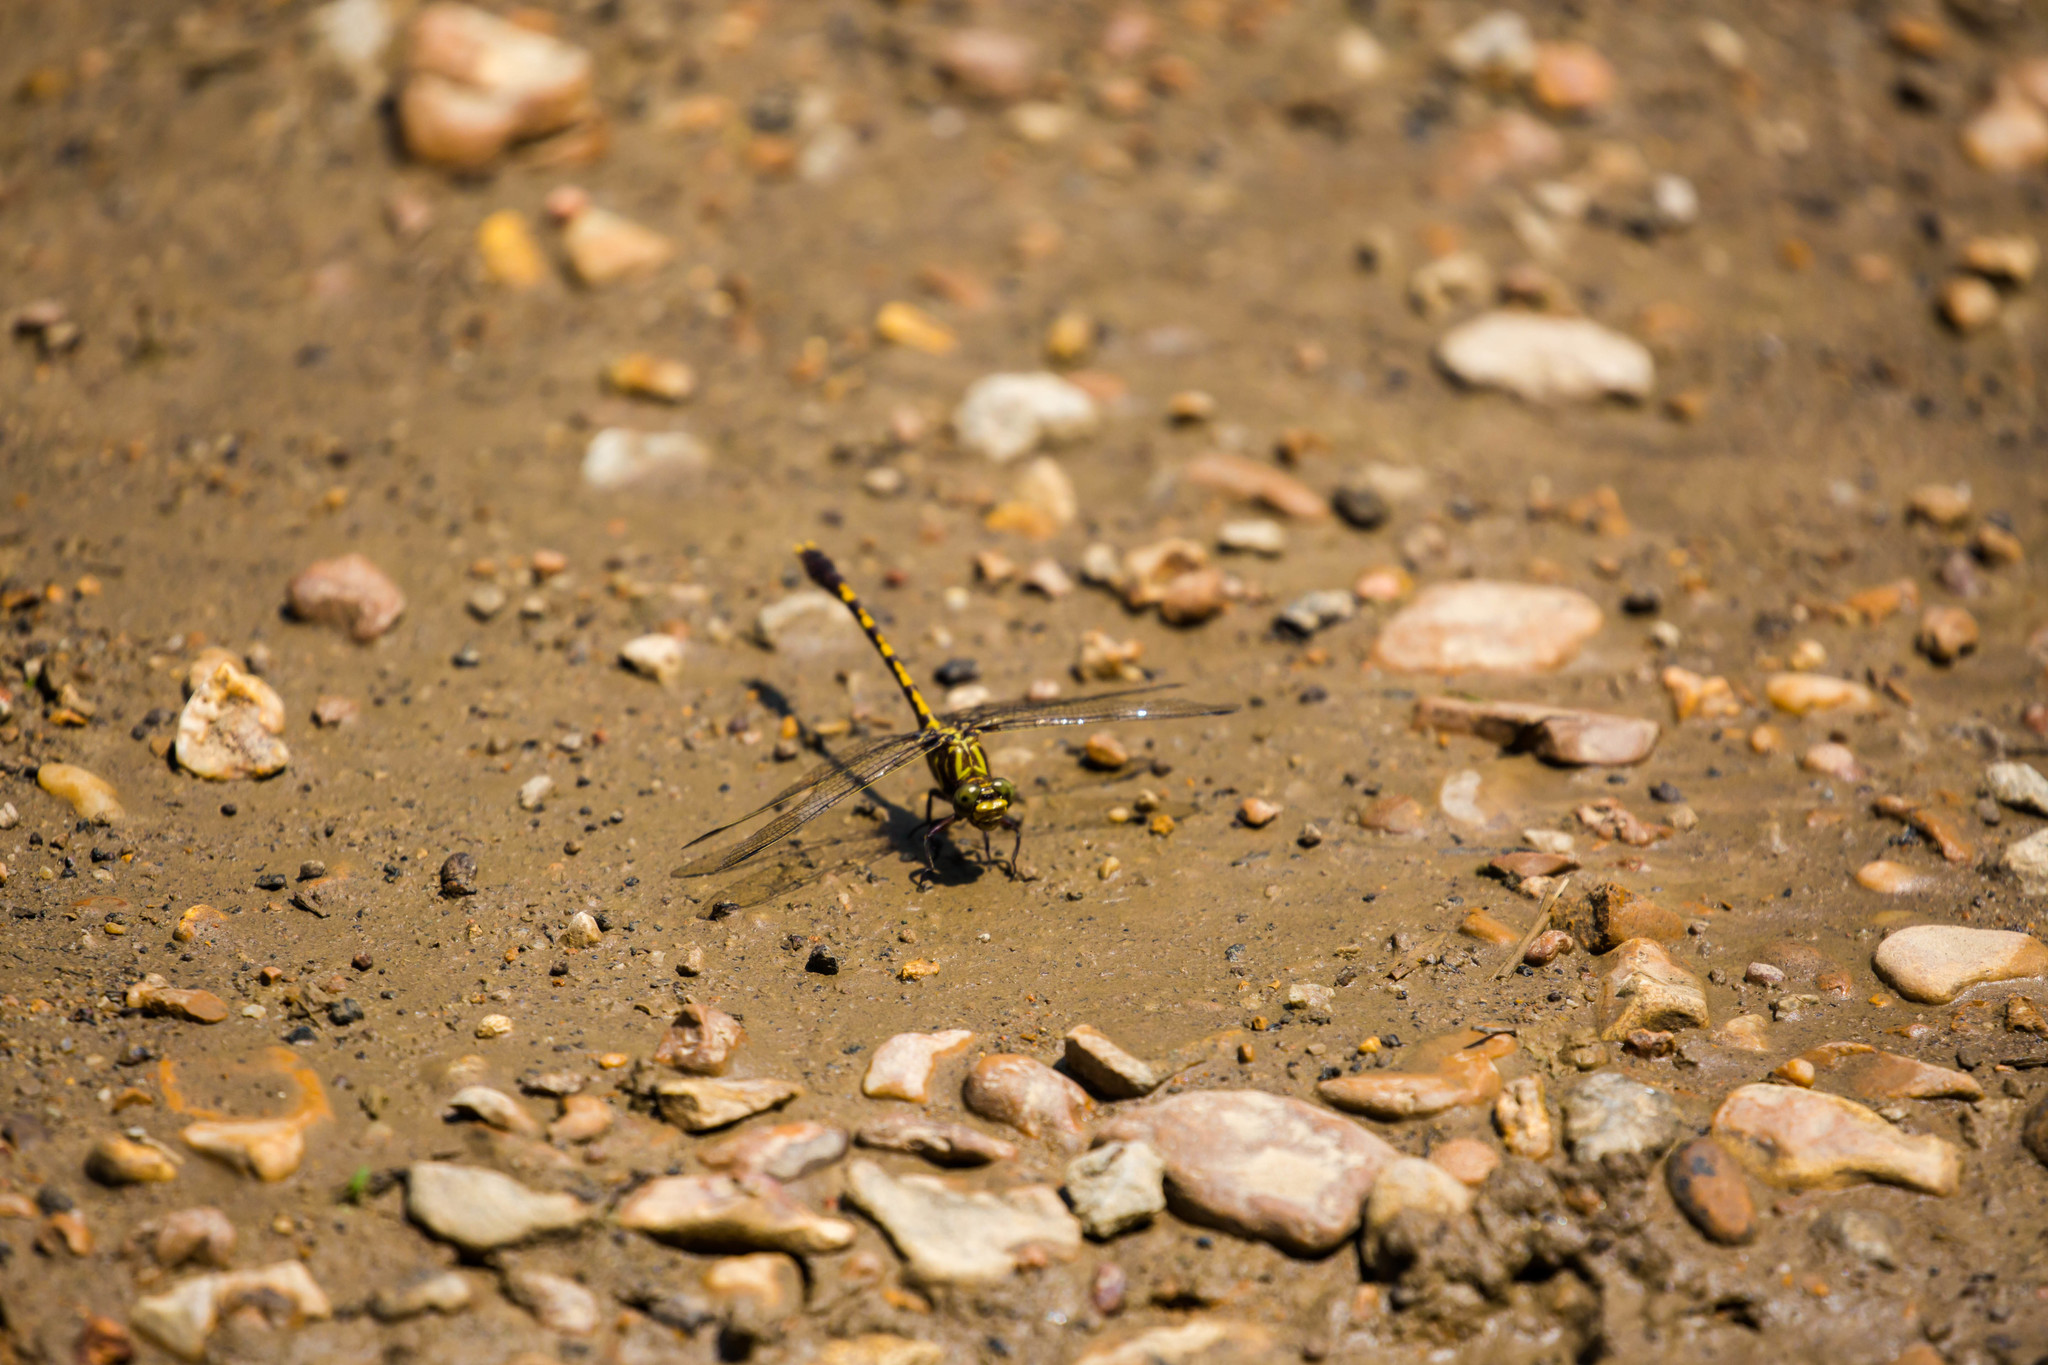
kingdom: Animalia
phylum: Arthropoda
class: Insecta
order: Odonata
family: Gomphidae
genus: Progomphus
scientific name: Progomphus obscurus
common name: Common sanddragon
